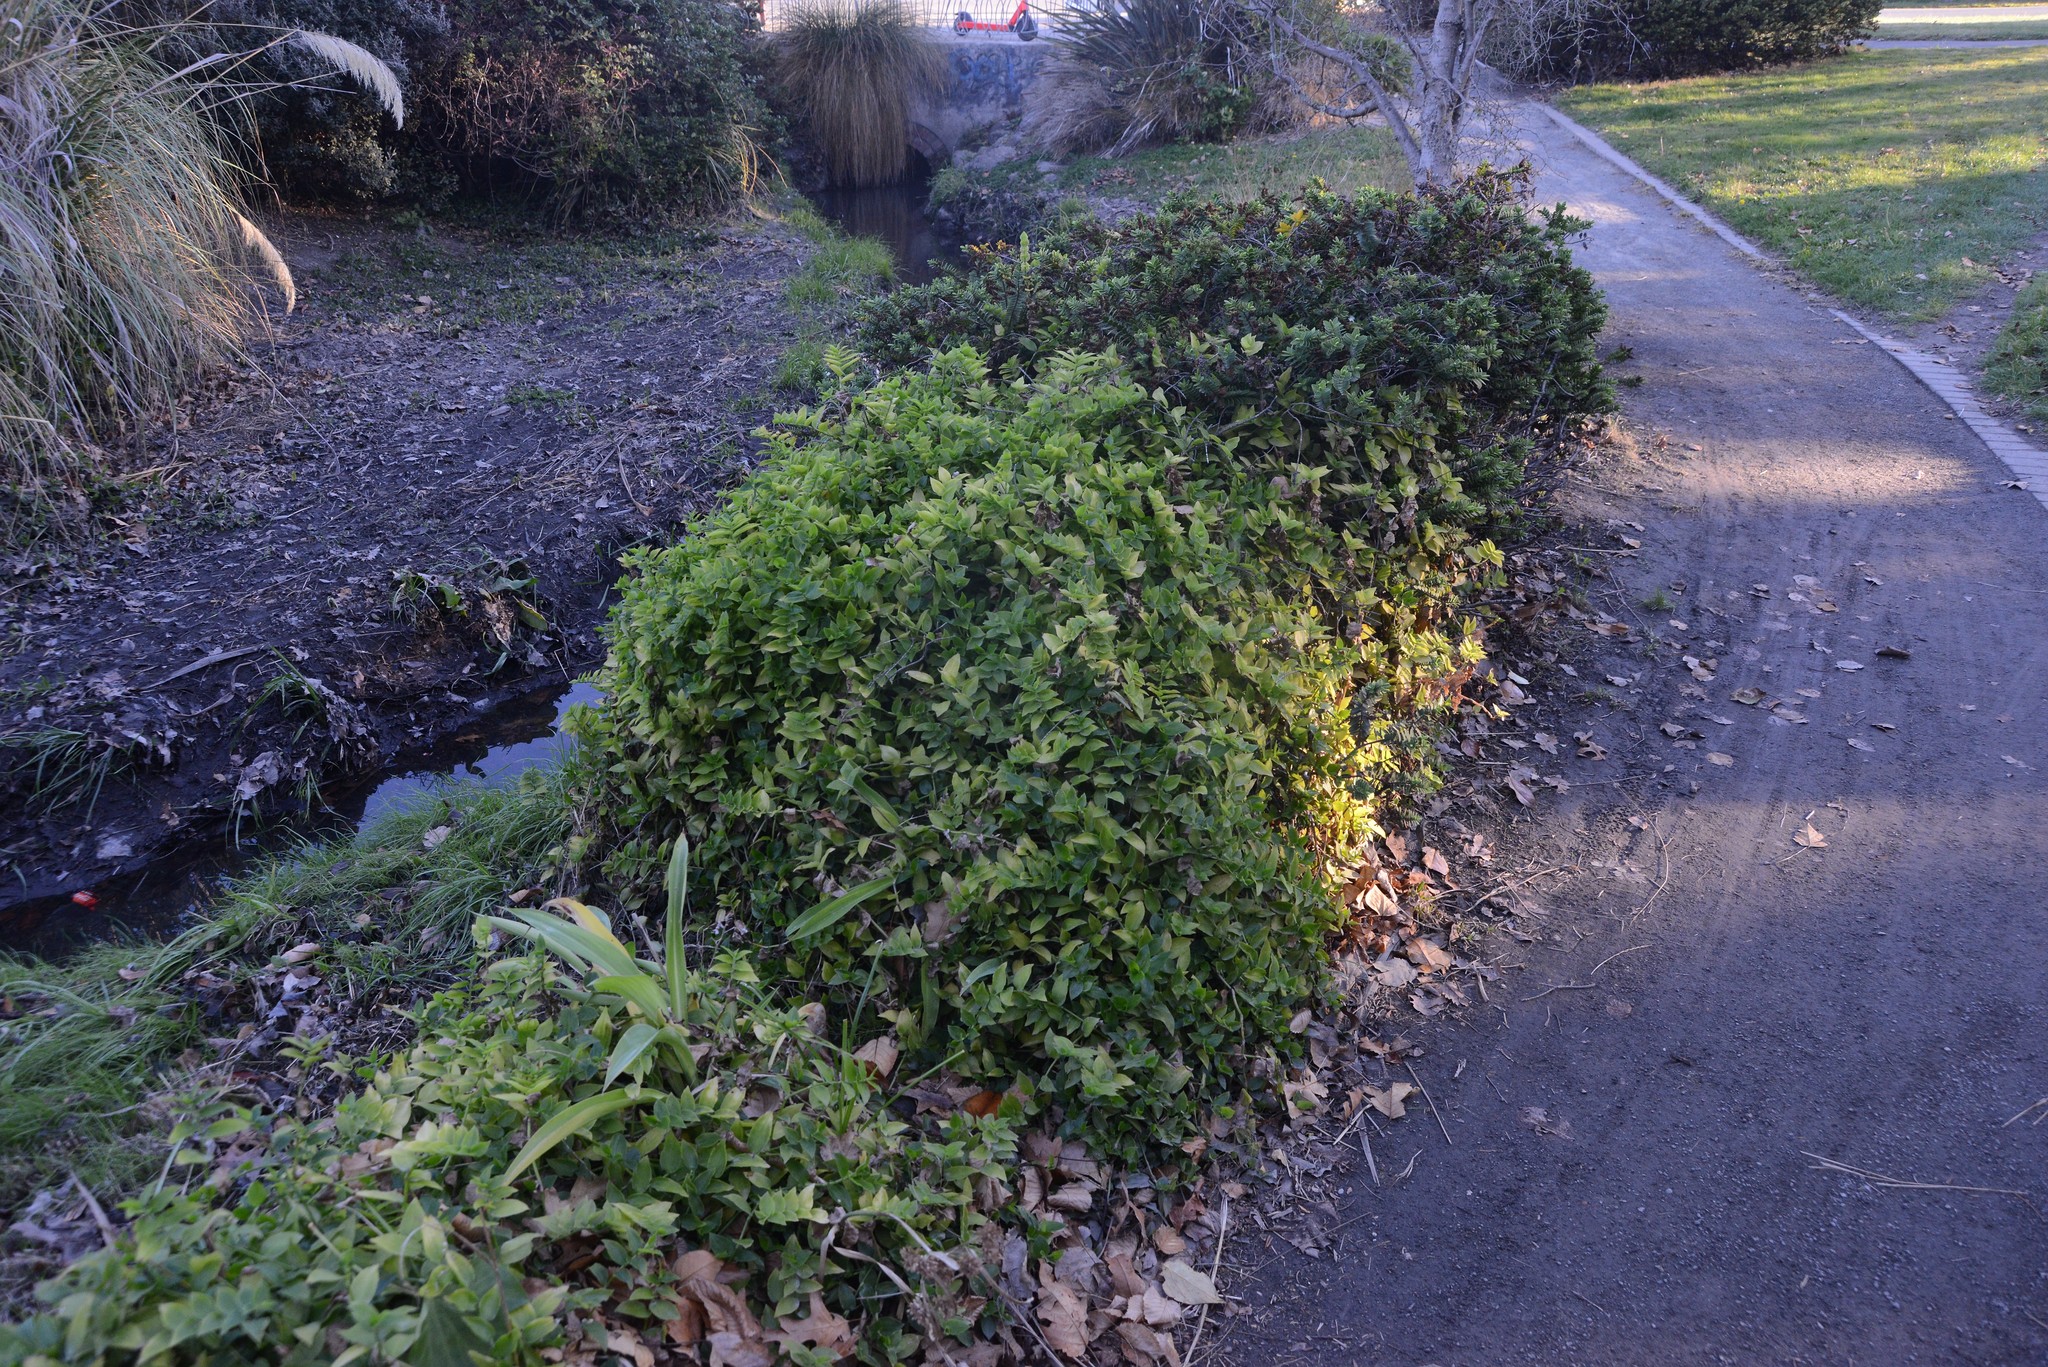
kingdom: Plantae
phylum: Tracheophyta
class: Liliopsida
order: Commelinales
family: Commelinaceae
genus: Tradescantia
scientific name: Tradescantia fluminensis
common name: Wandering-jew
